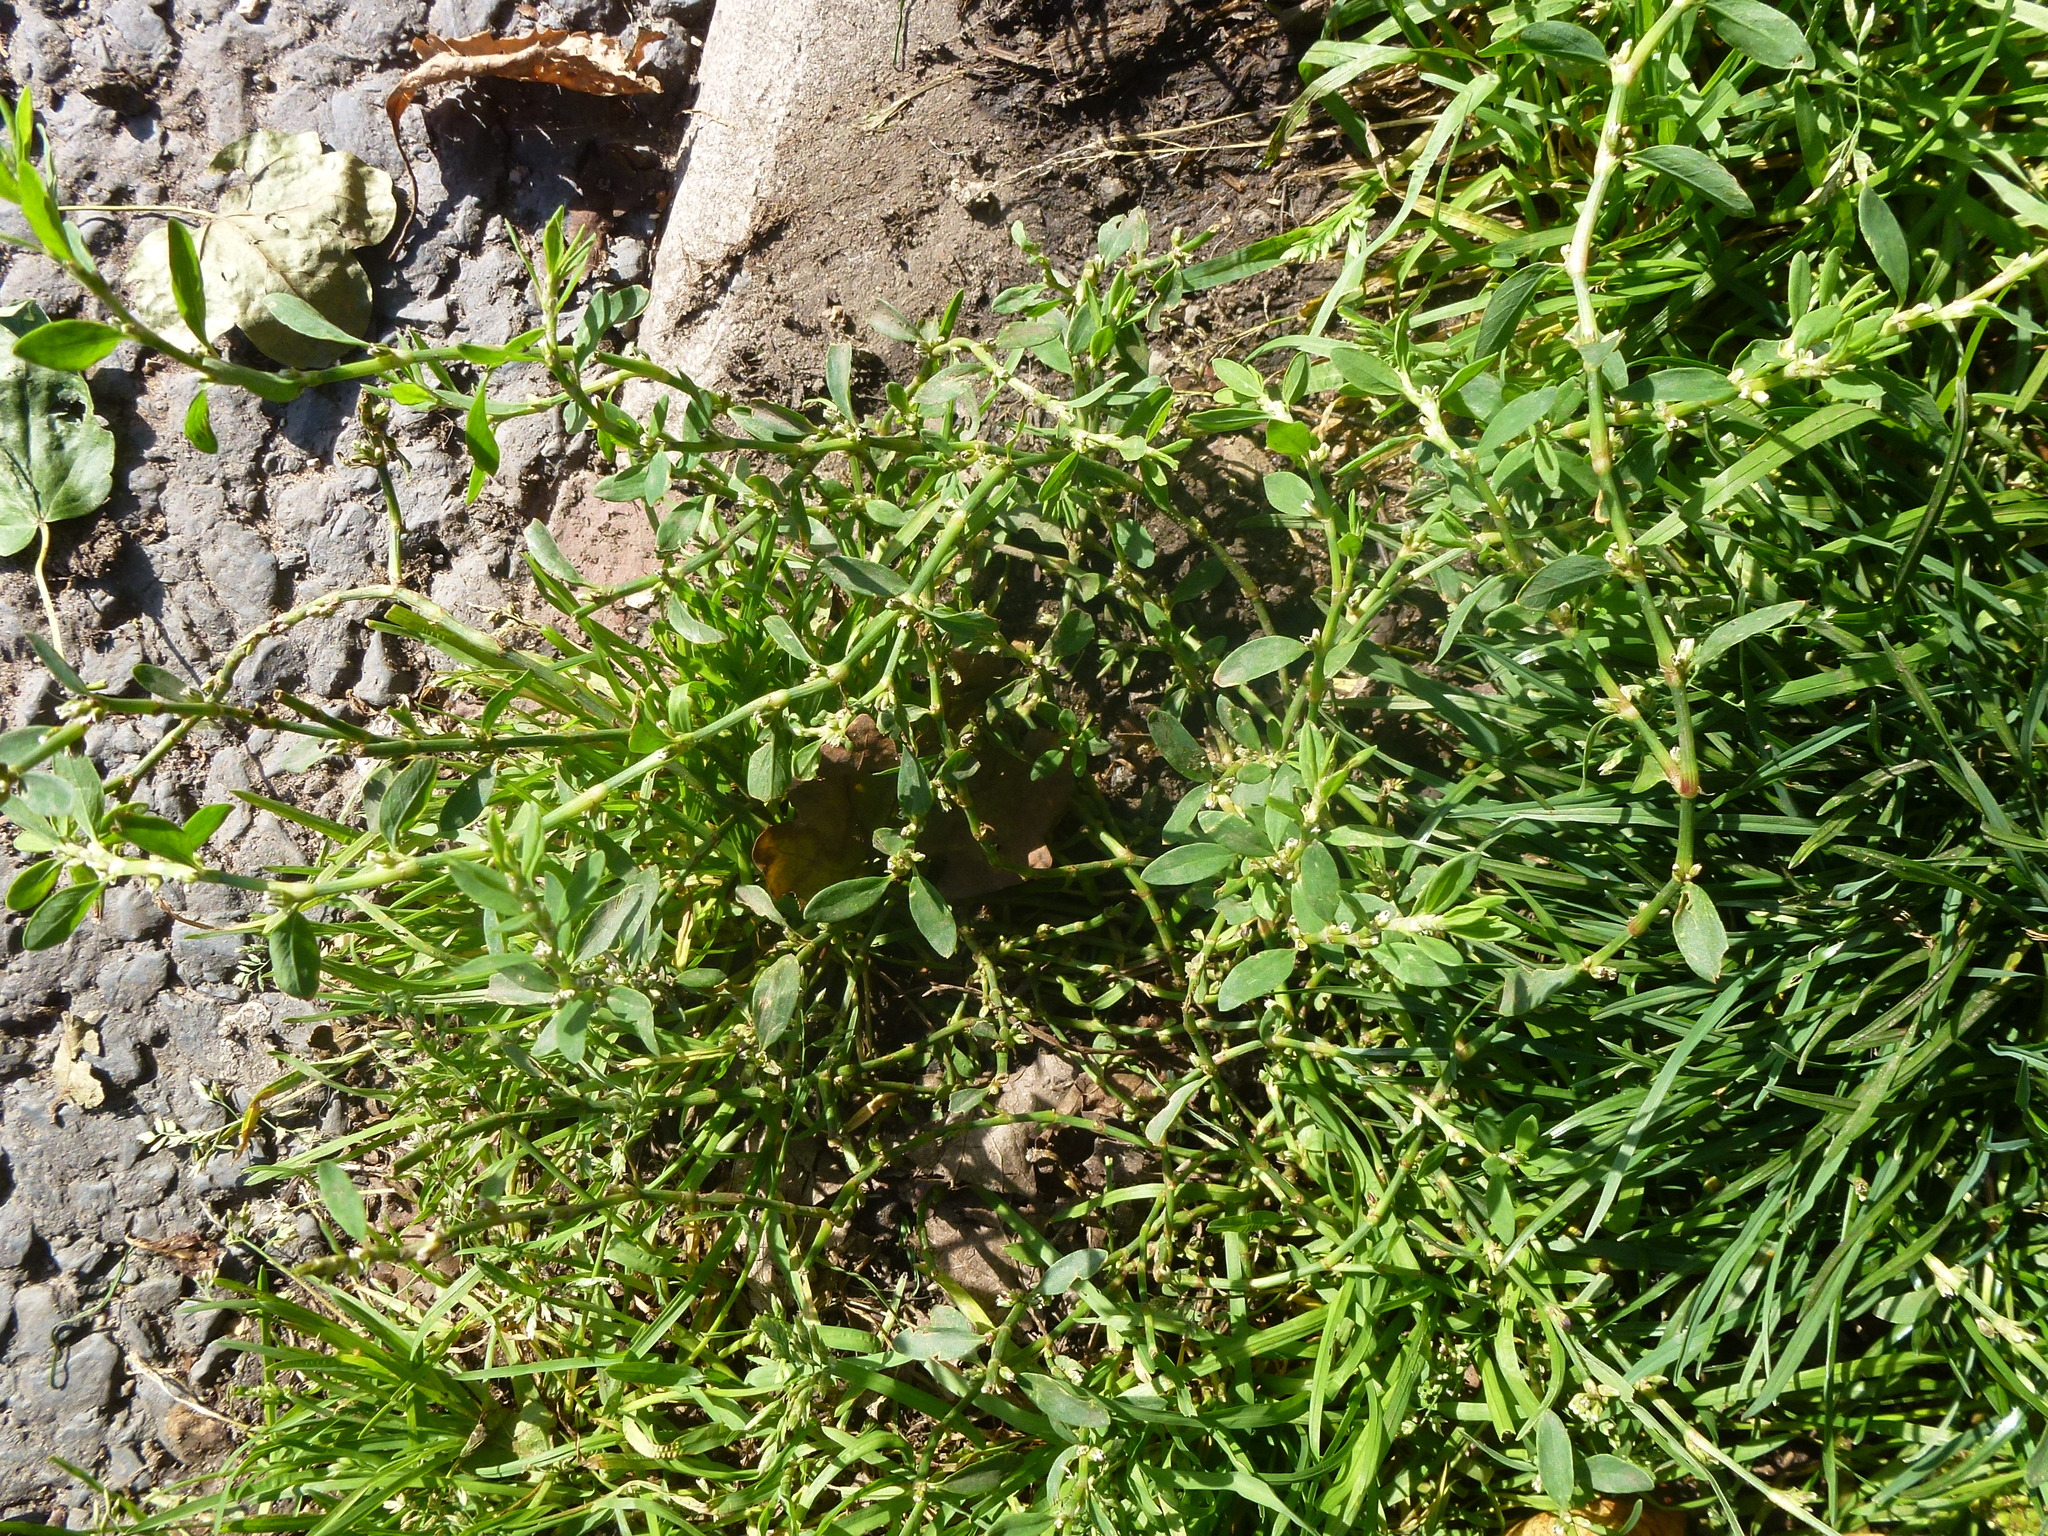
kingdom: Plantae
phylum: Tracheophyta
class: Magnoliopsida
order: Caryophyllales
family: Polygonaceae
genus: Polygonum
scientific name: Polygonum aviculare
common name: Prostrate knotweed
